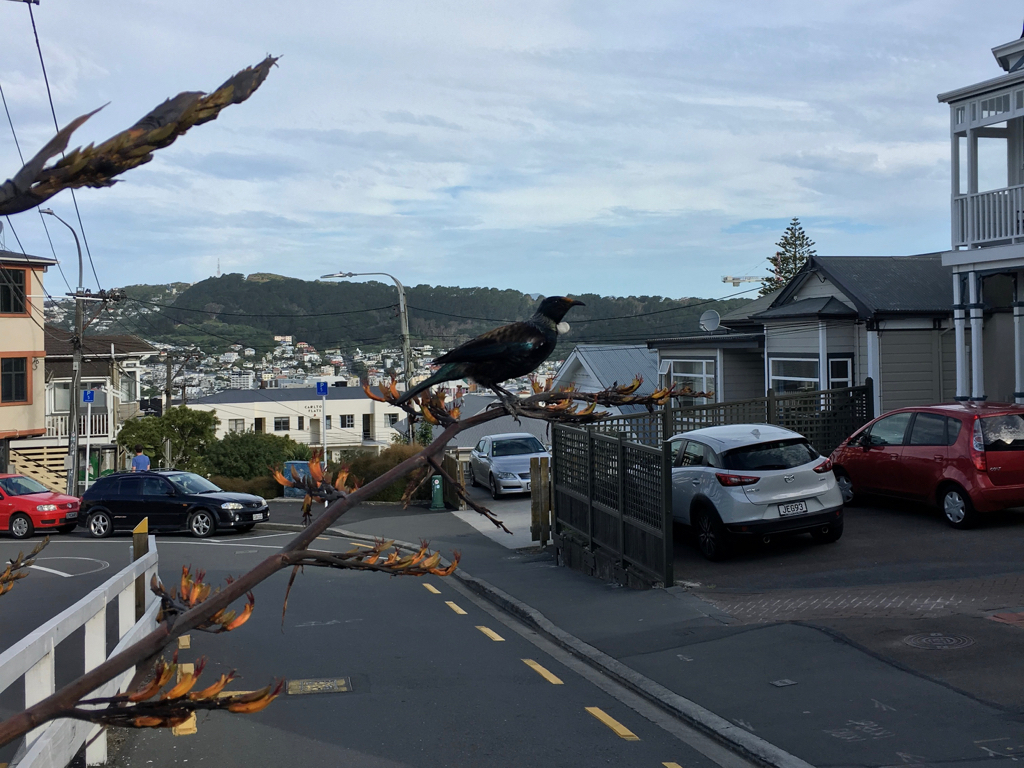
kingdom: Animalia
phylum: Chordata
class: Aves
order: Passeriformes
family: Meliphagidae
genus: Prosthemadera
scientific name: Prosthemadera novaeseelandiae
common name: Tui
